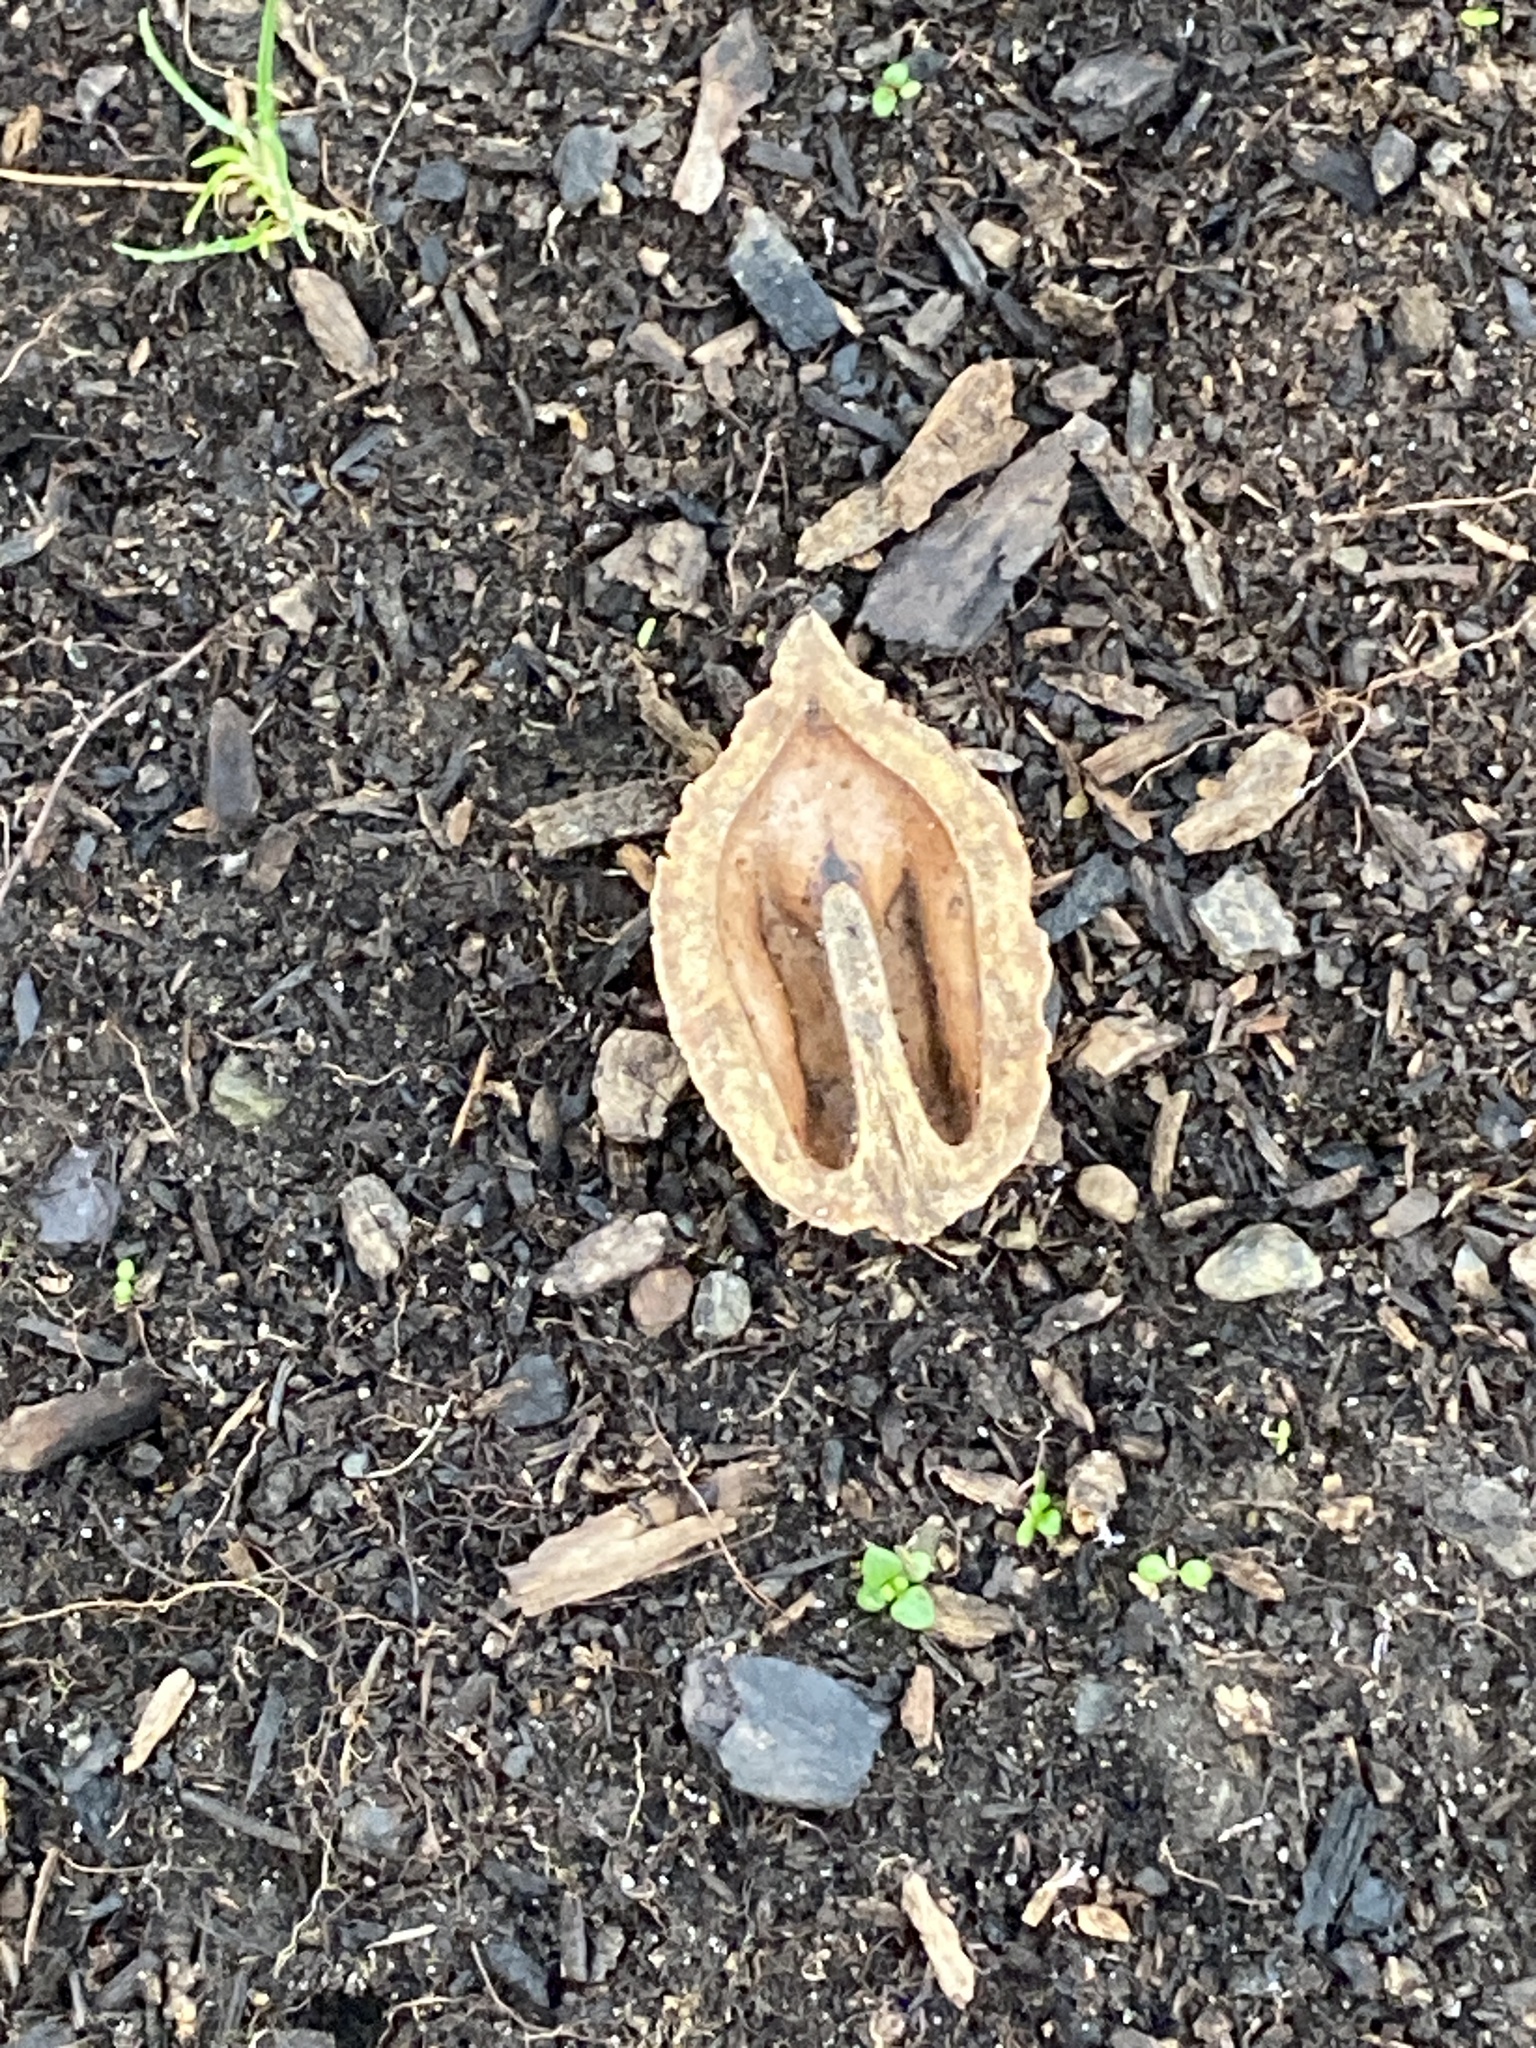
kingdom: Plantae
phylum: Tracheophyta
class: Magnoliopsida
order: Fagales
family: Juglandaceae
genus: Juglans
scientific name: Juglans cinerea
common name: Butternut
